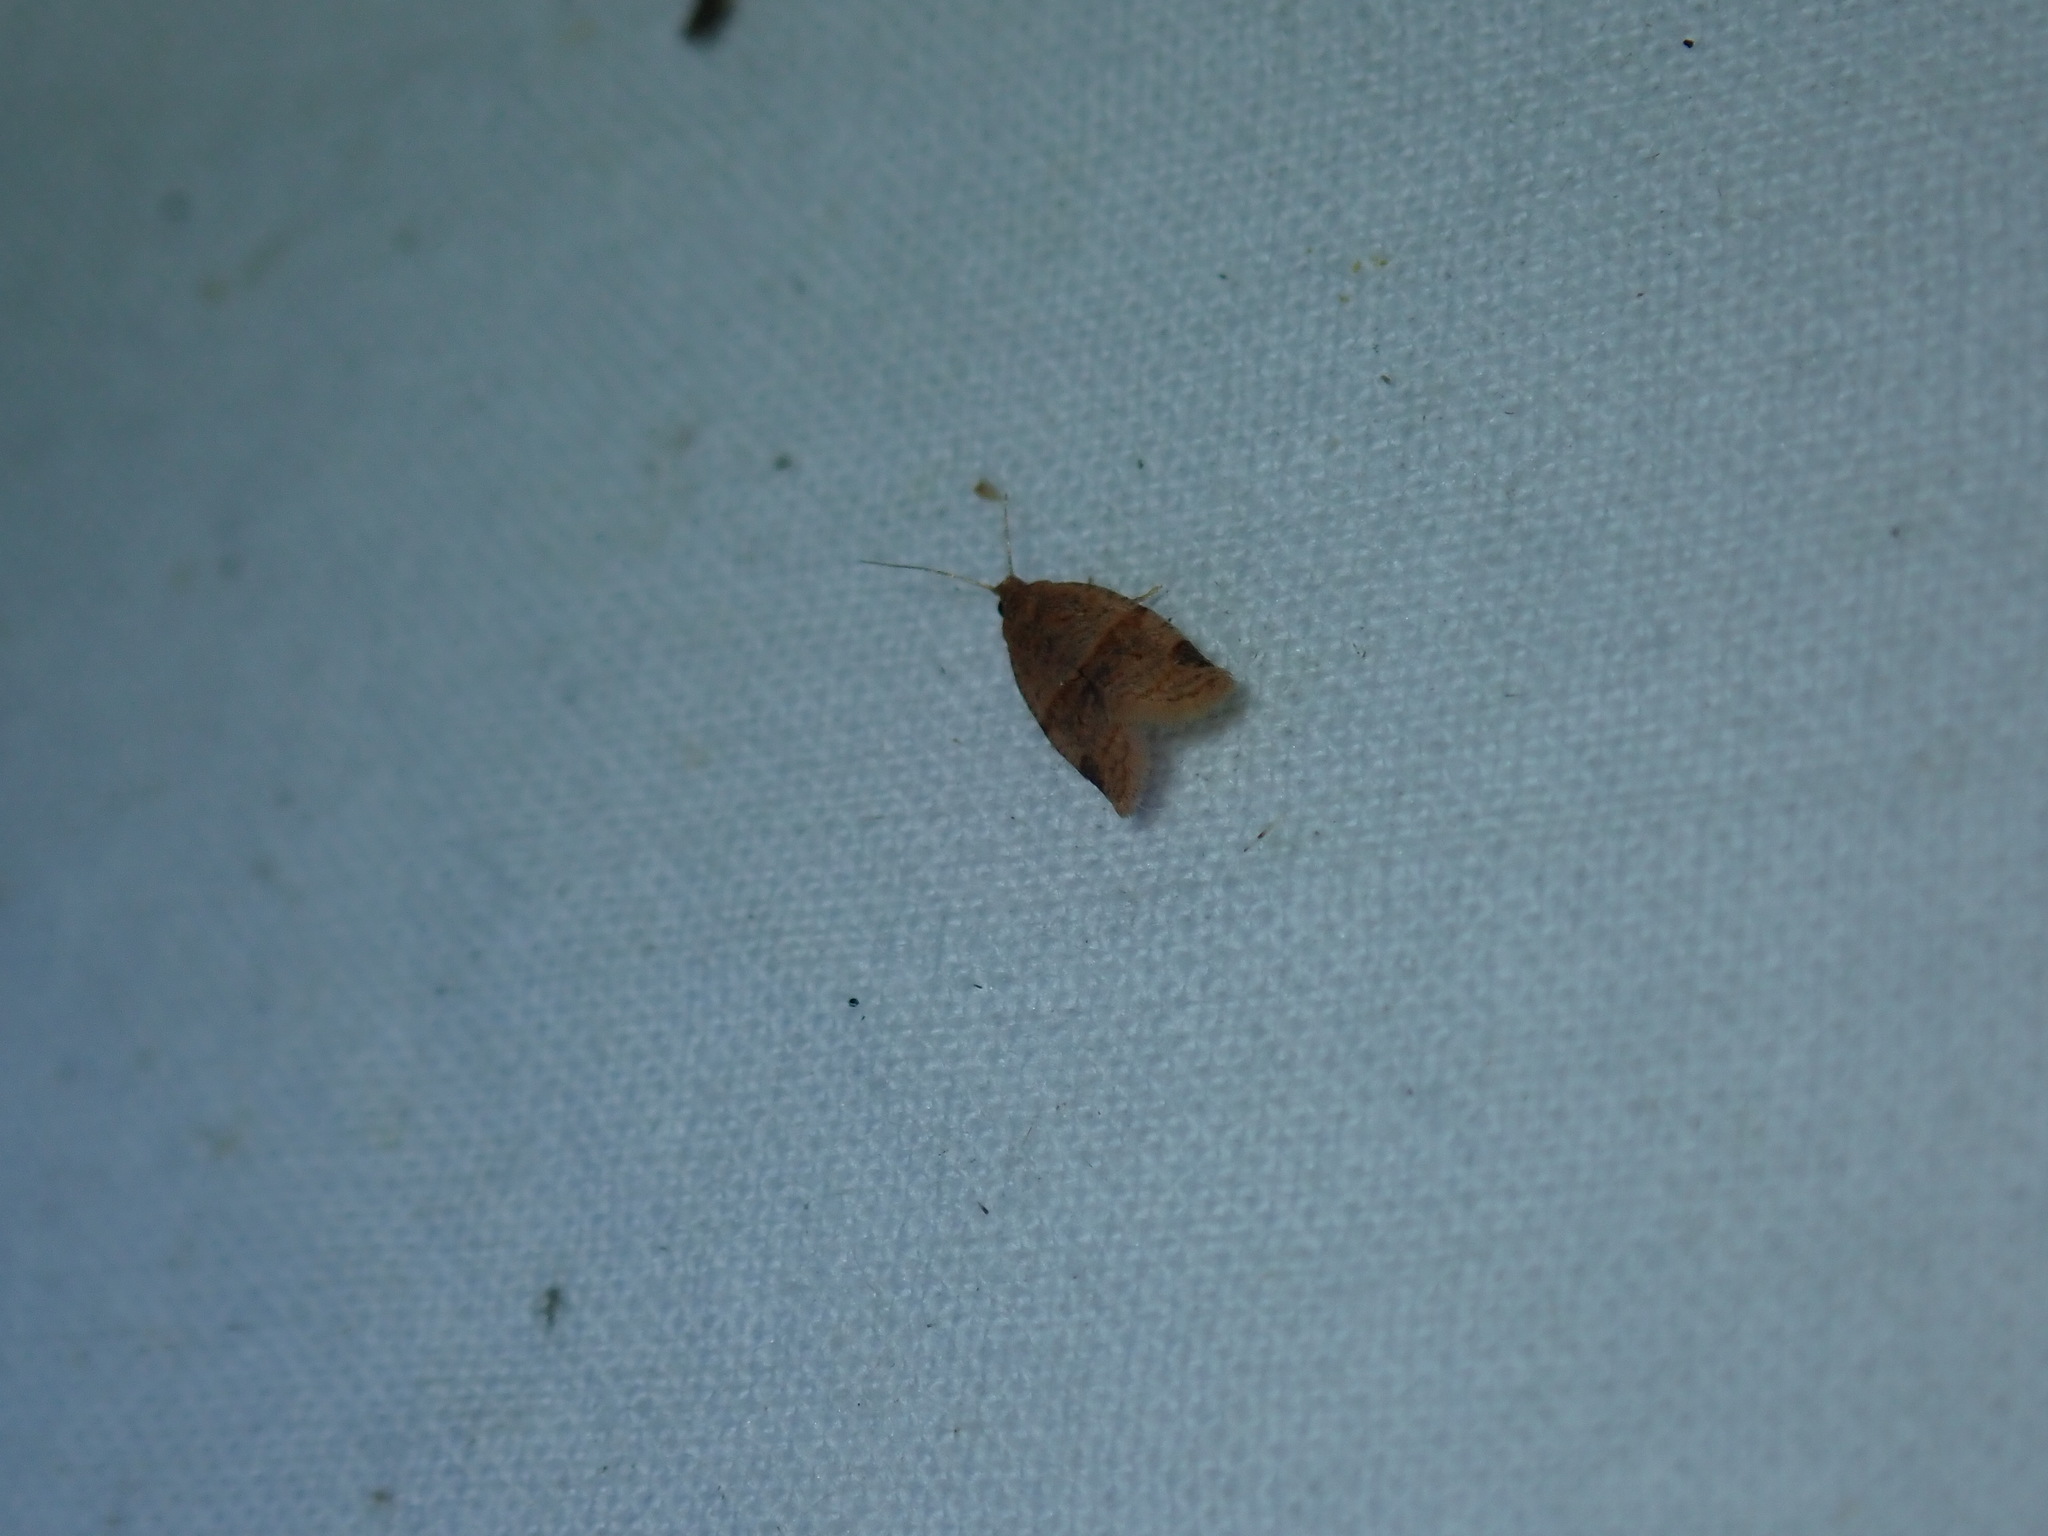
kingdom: Animalia
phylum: Arthropoda
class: Insecta
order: Lepidoptera
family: Tortricidae
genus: Clepsis
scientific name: Clepsis peritana
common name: Garden tortrix
